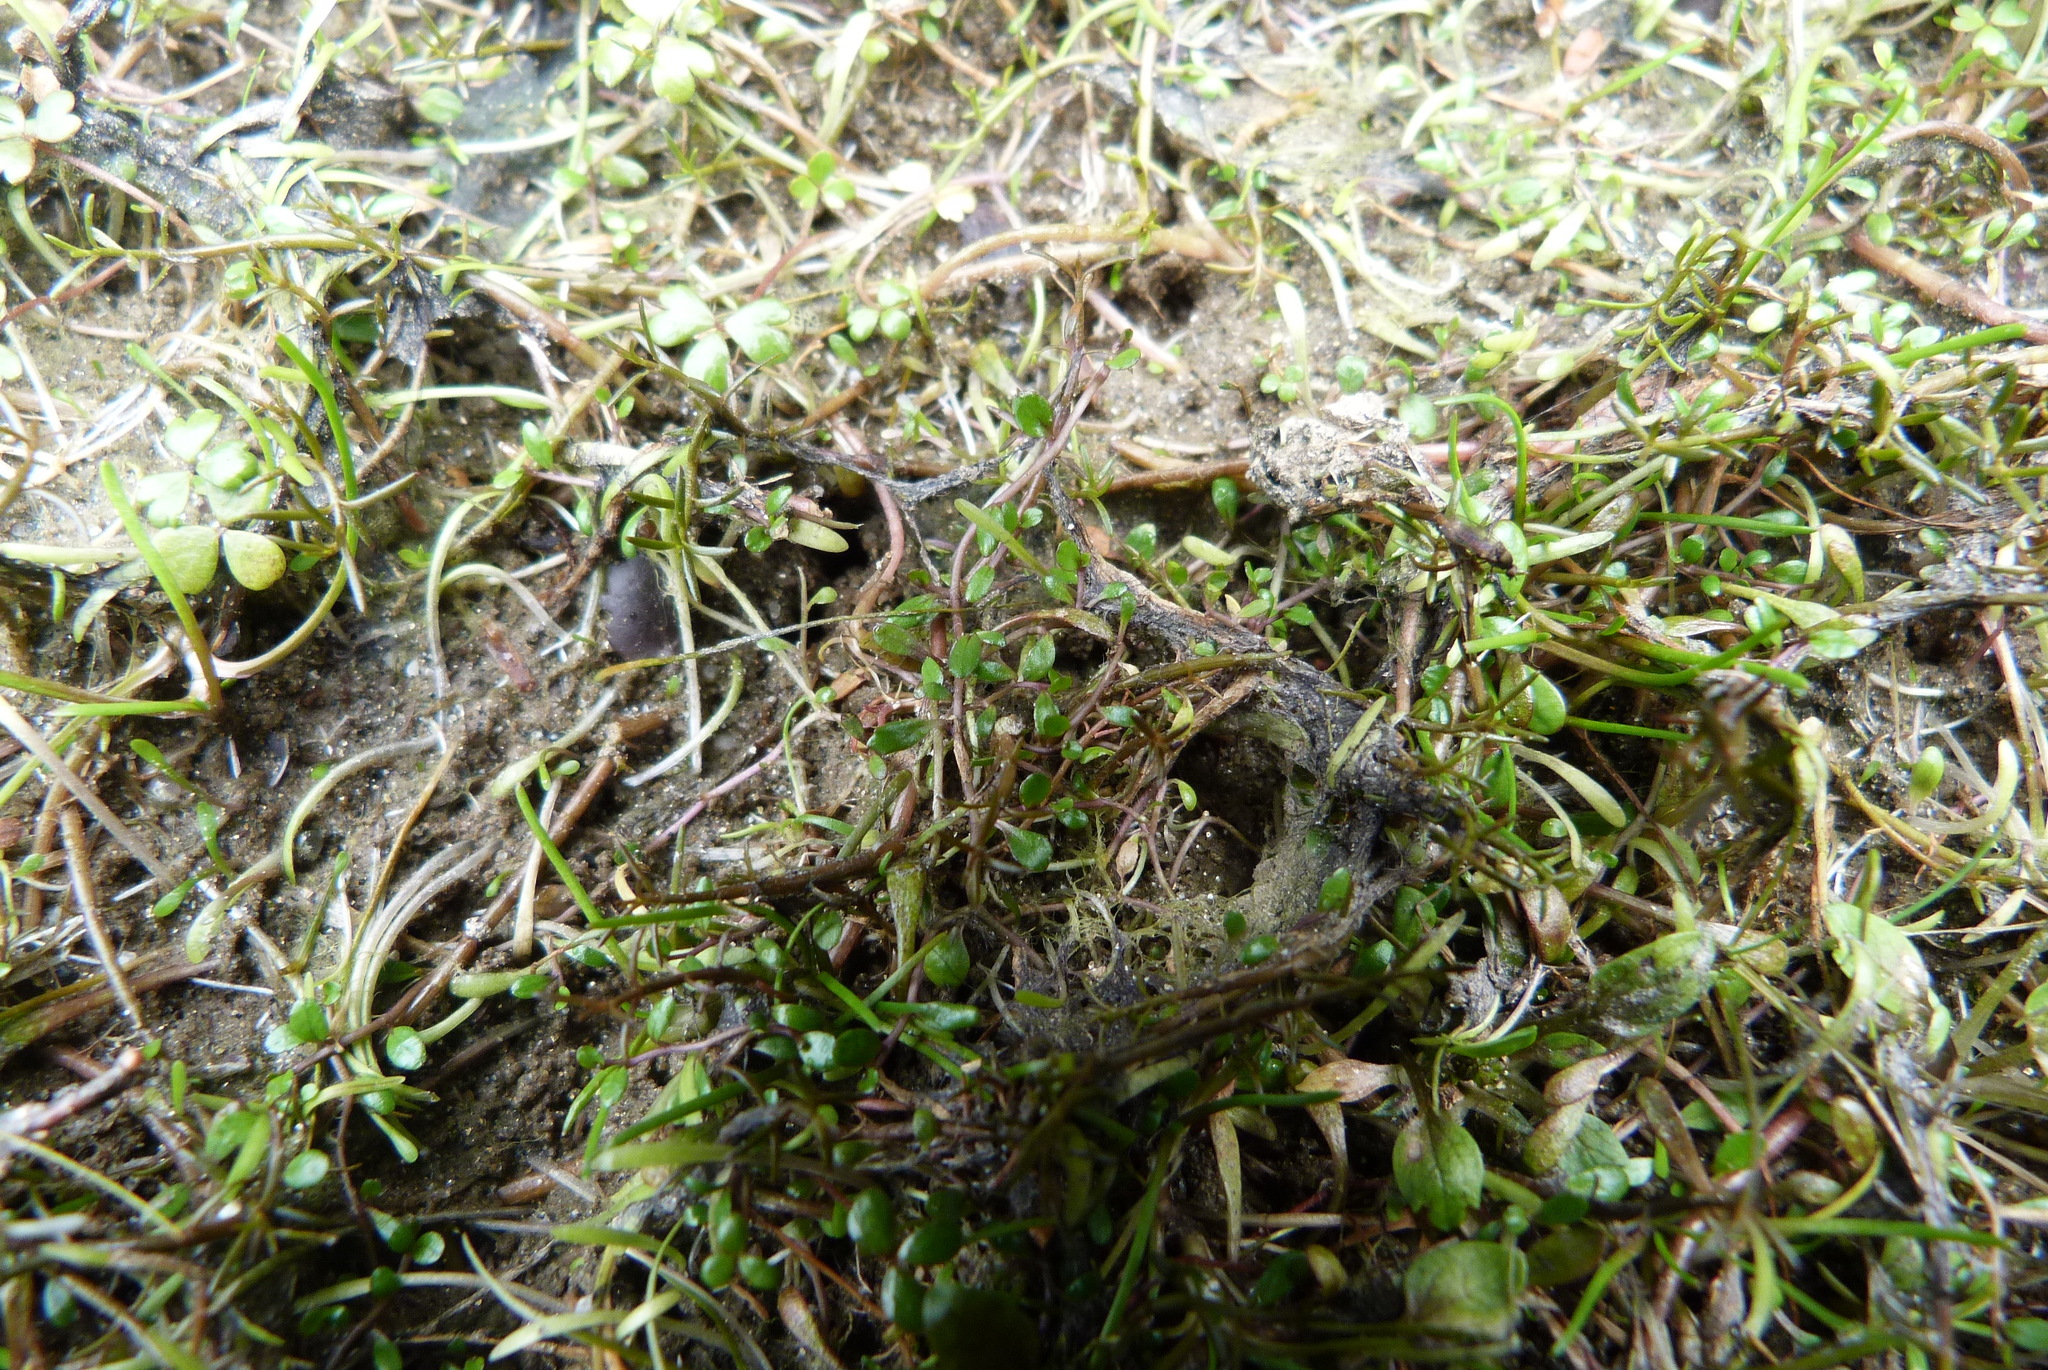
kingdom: Plantae
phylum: Tracheophyta
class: Magnoliopsida
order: Asterales
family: Campanulaceae
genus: Isotoma
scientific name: Isotoma rivalis
